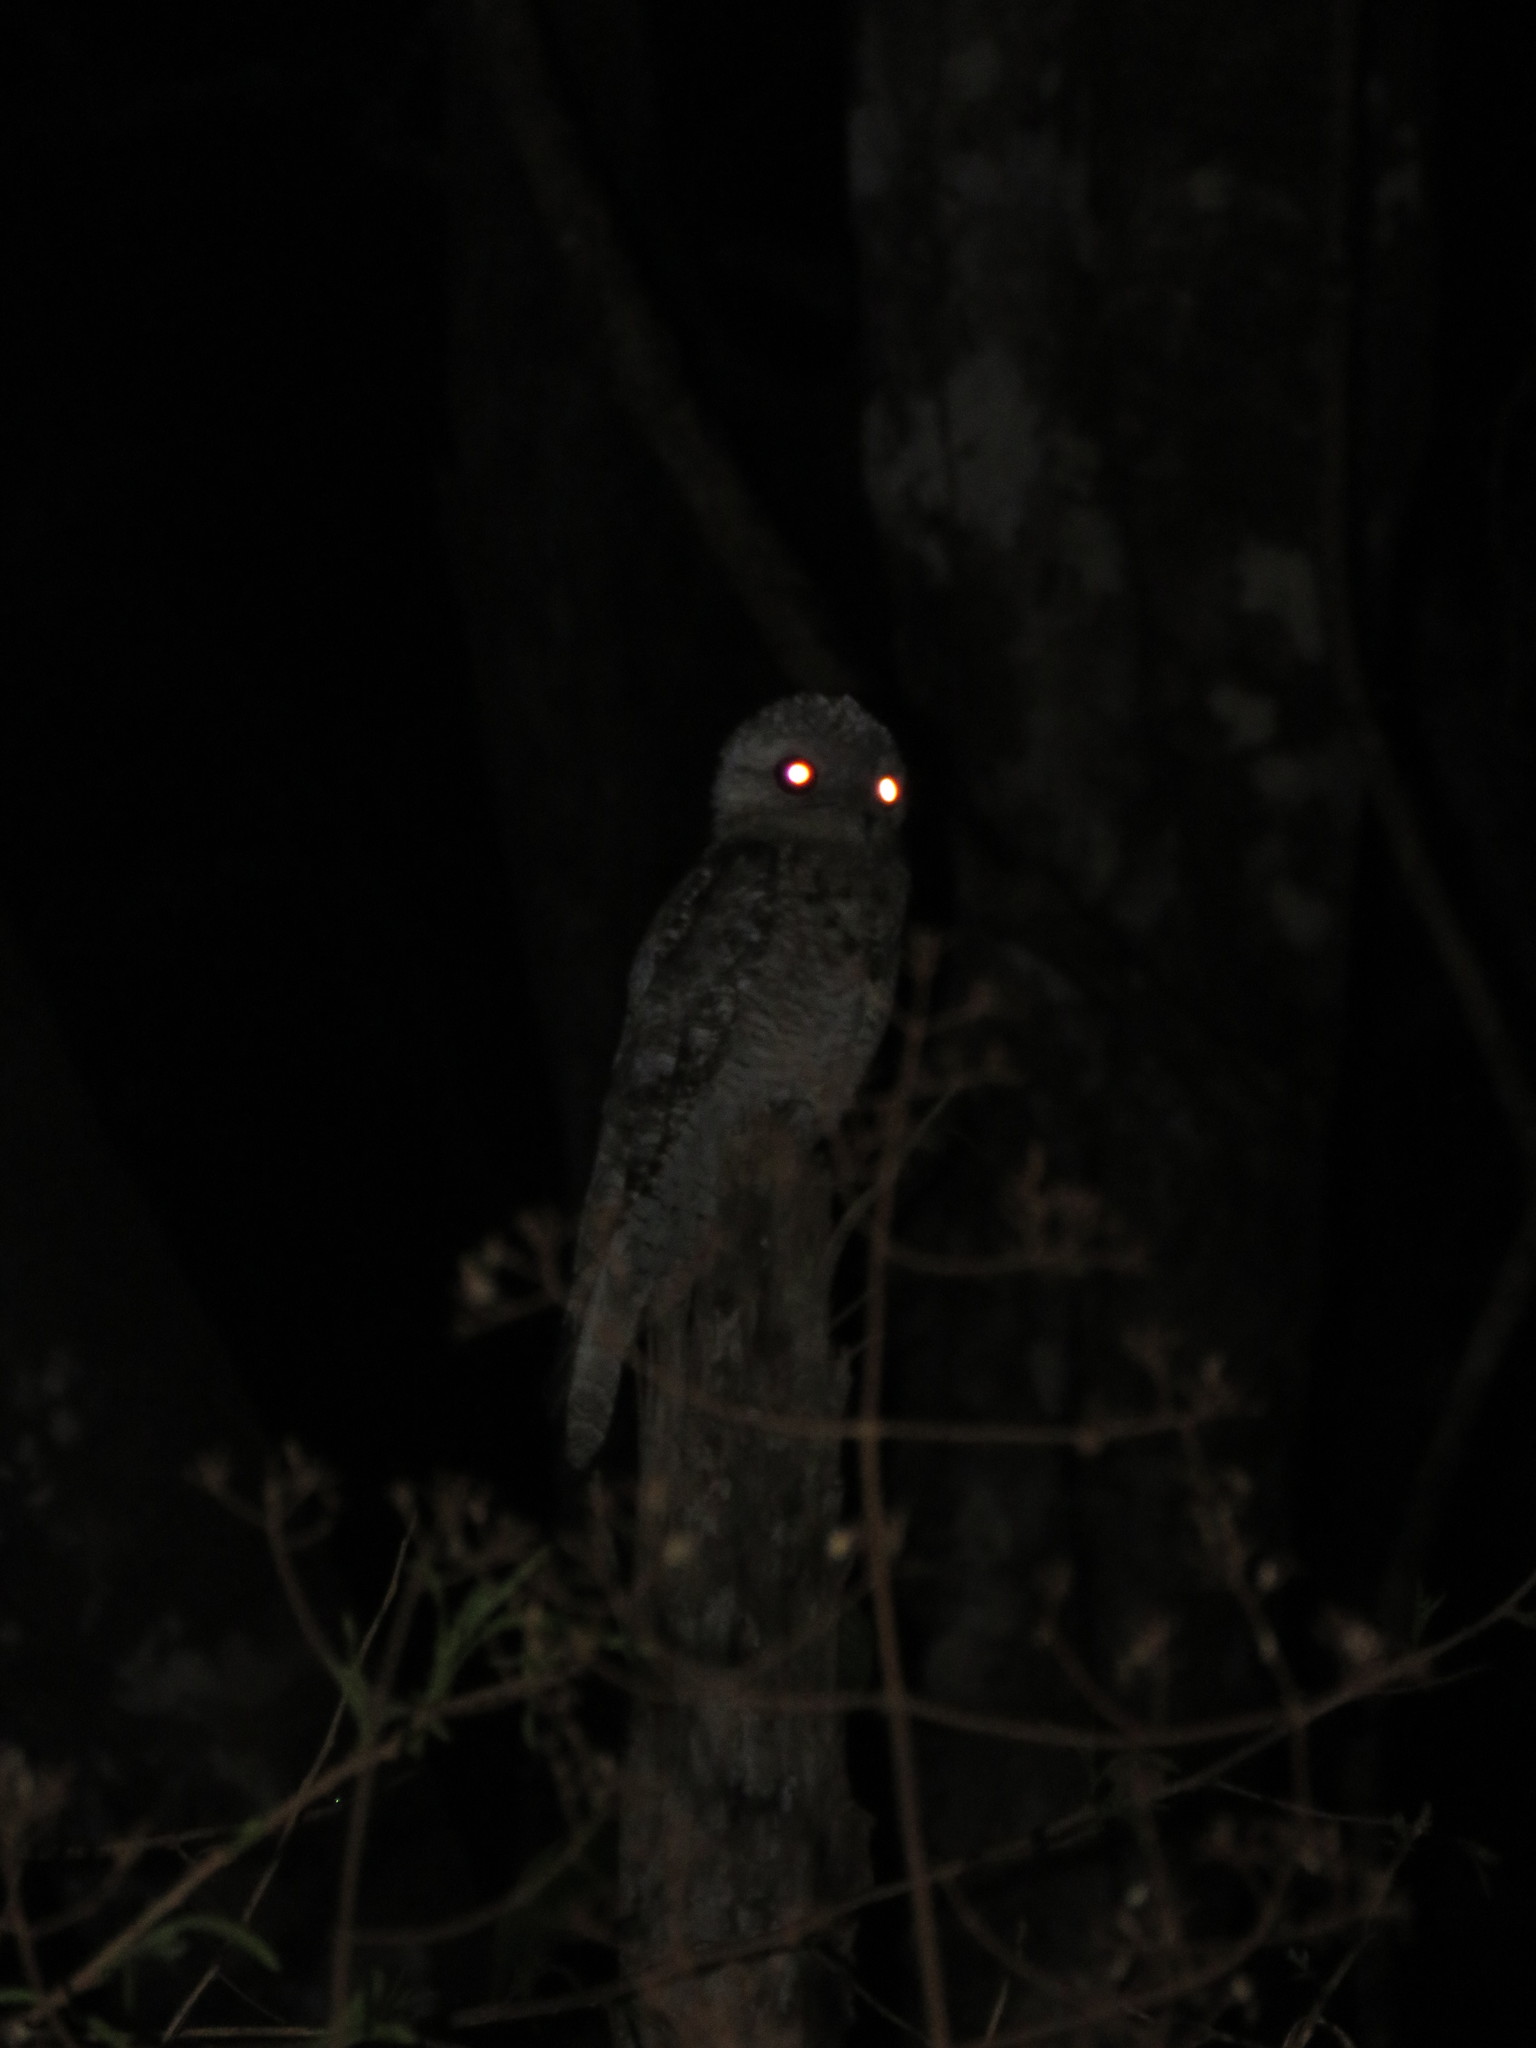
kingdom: Animalia
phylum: Chordata
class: Aves
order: Nyctibiiformes
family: Nyctibiidae
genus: Nyctibius
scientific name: Nyctibius griseus
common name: Common potoo
